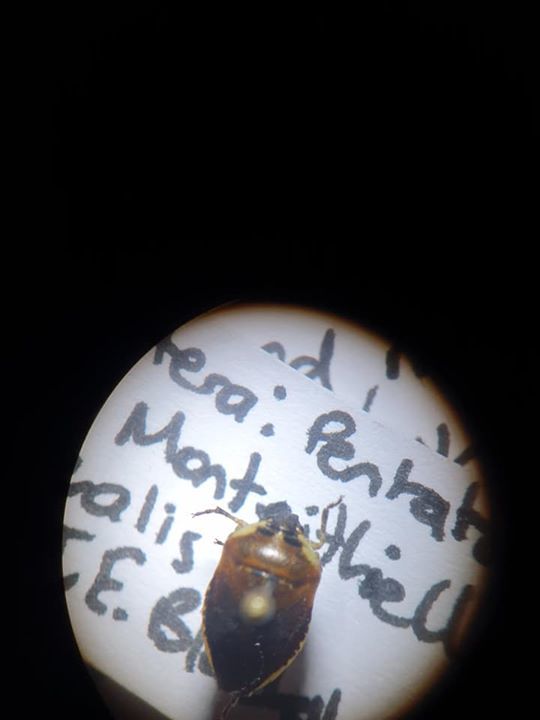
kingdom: Animalia
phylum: Arthropoda
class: Insecta
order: Hemiptera
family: Pentatomidae
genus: Monteithiella
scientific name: Monteithiella
